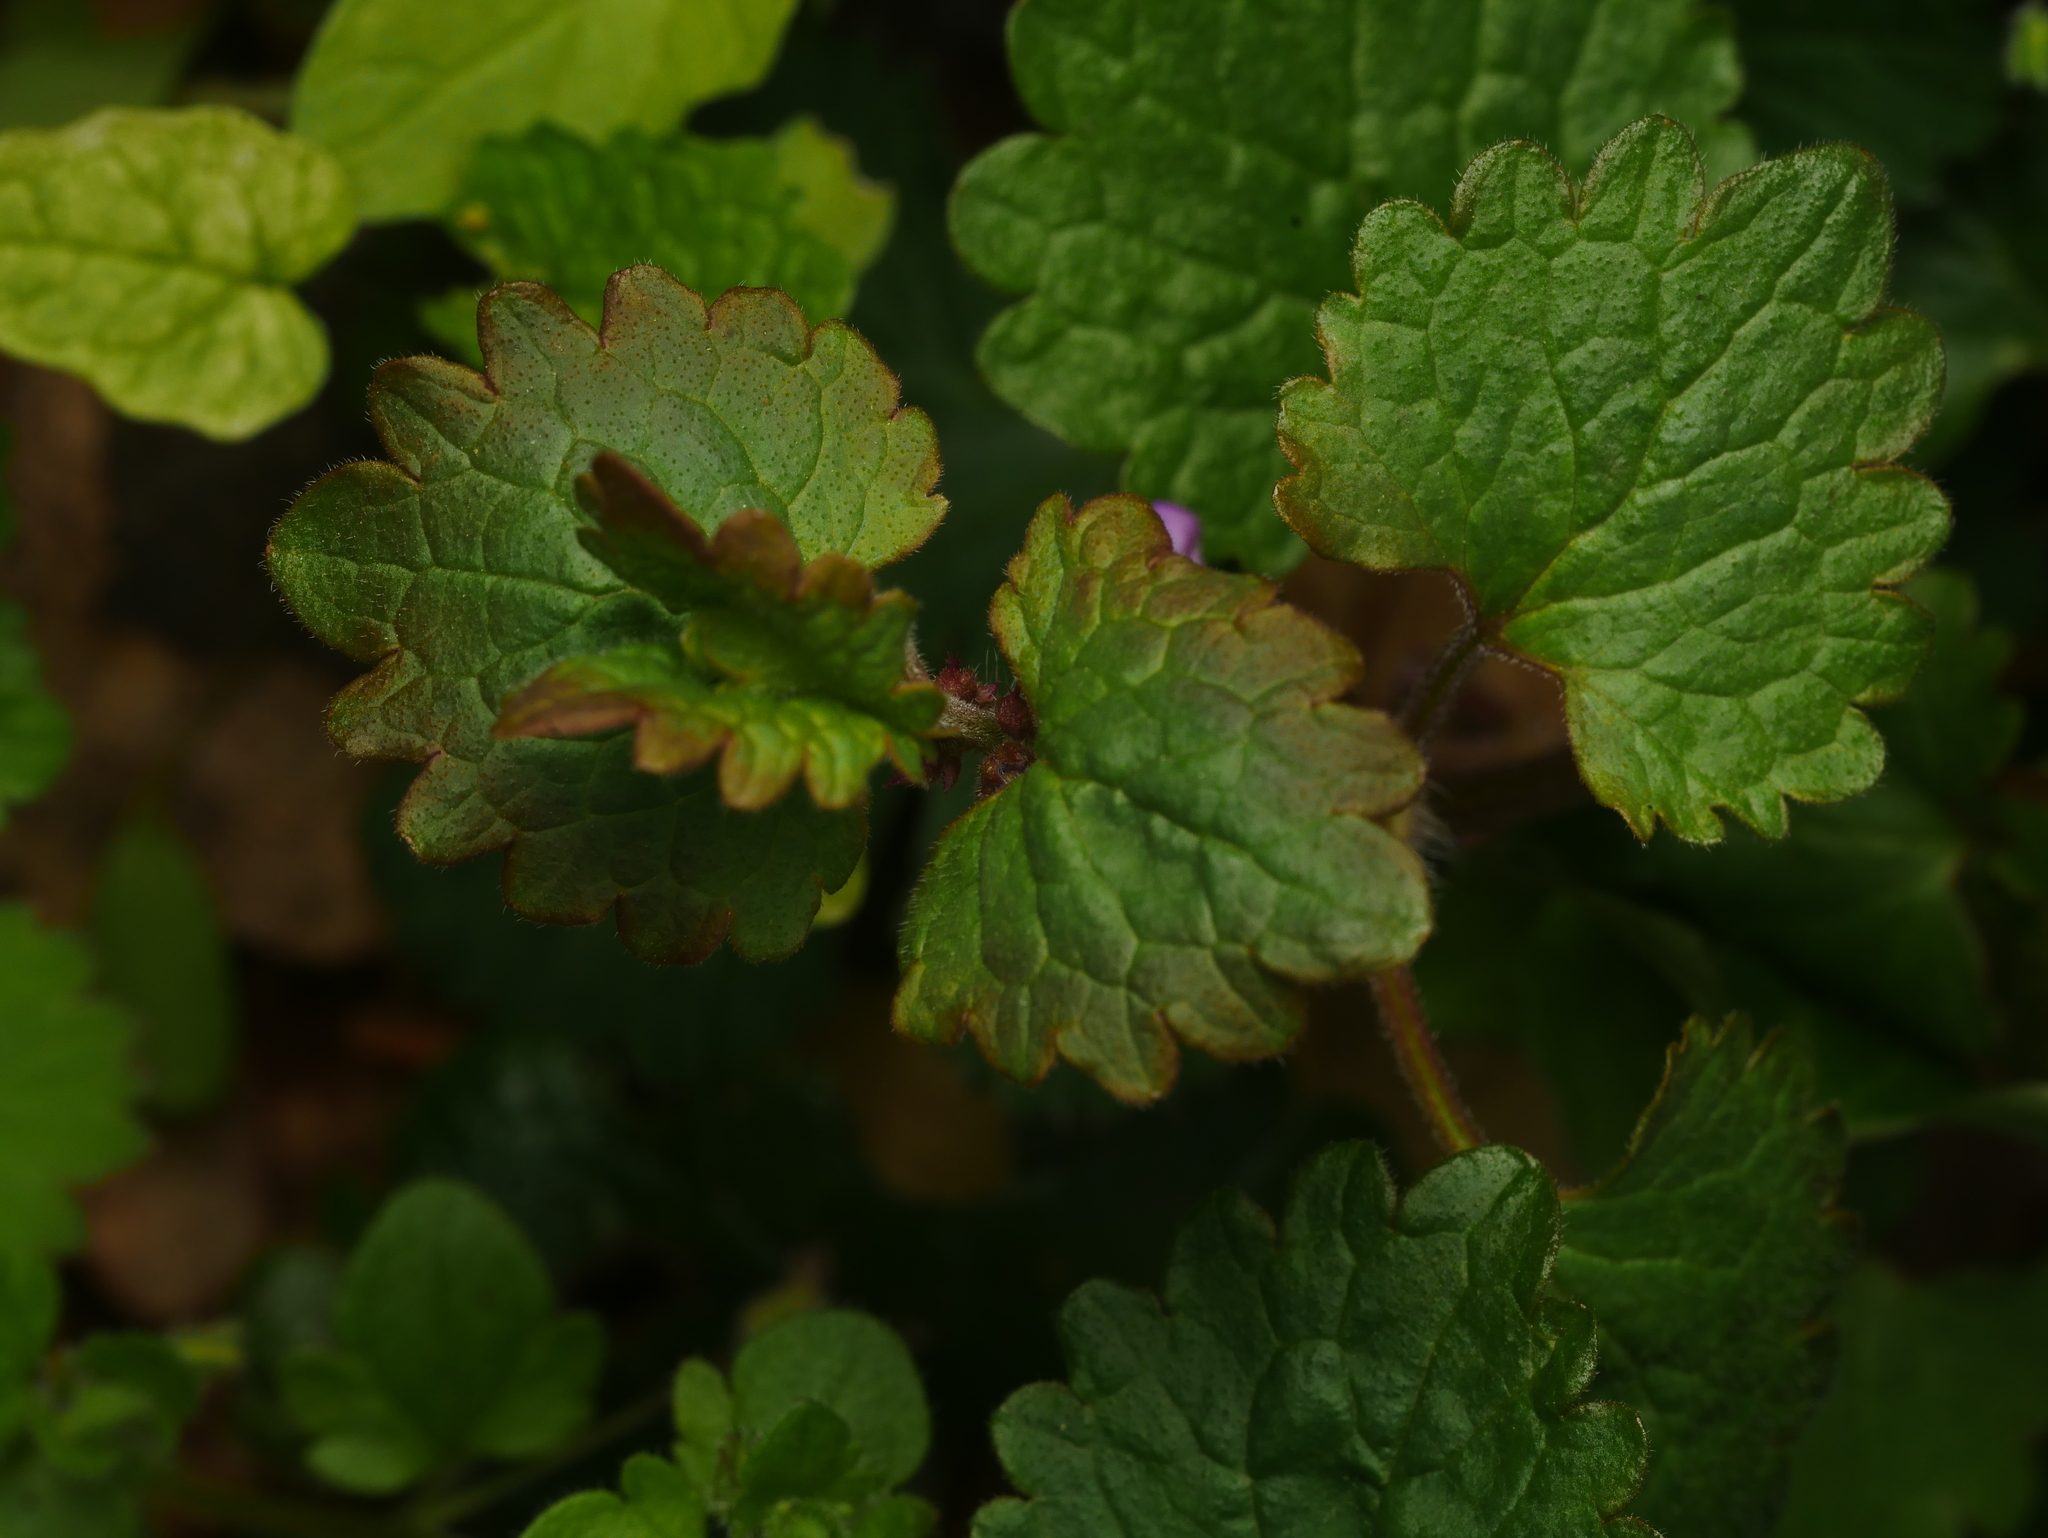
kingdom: Plantae
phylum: Tracheophyta
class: Magnoliopsida
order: Lamiales
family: Lamiaceae
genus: Glechoma
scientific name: Glechoma hederacea
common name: Ground ivy
